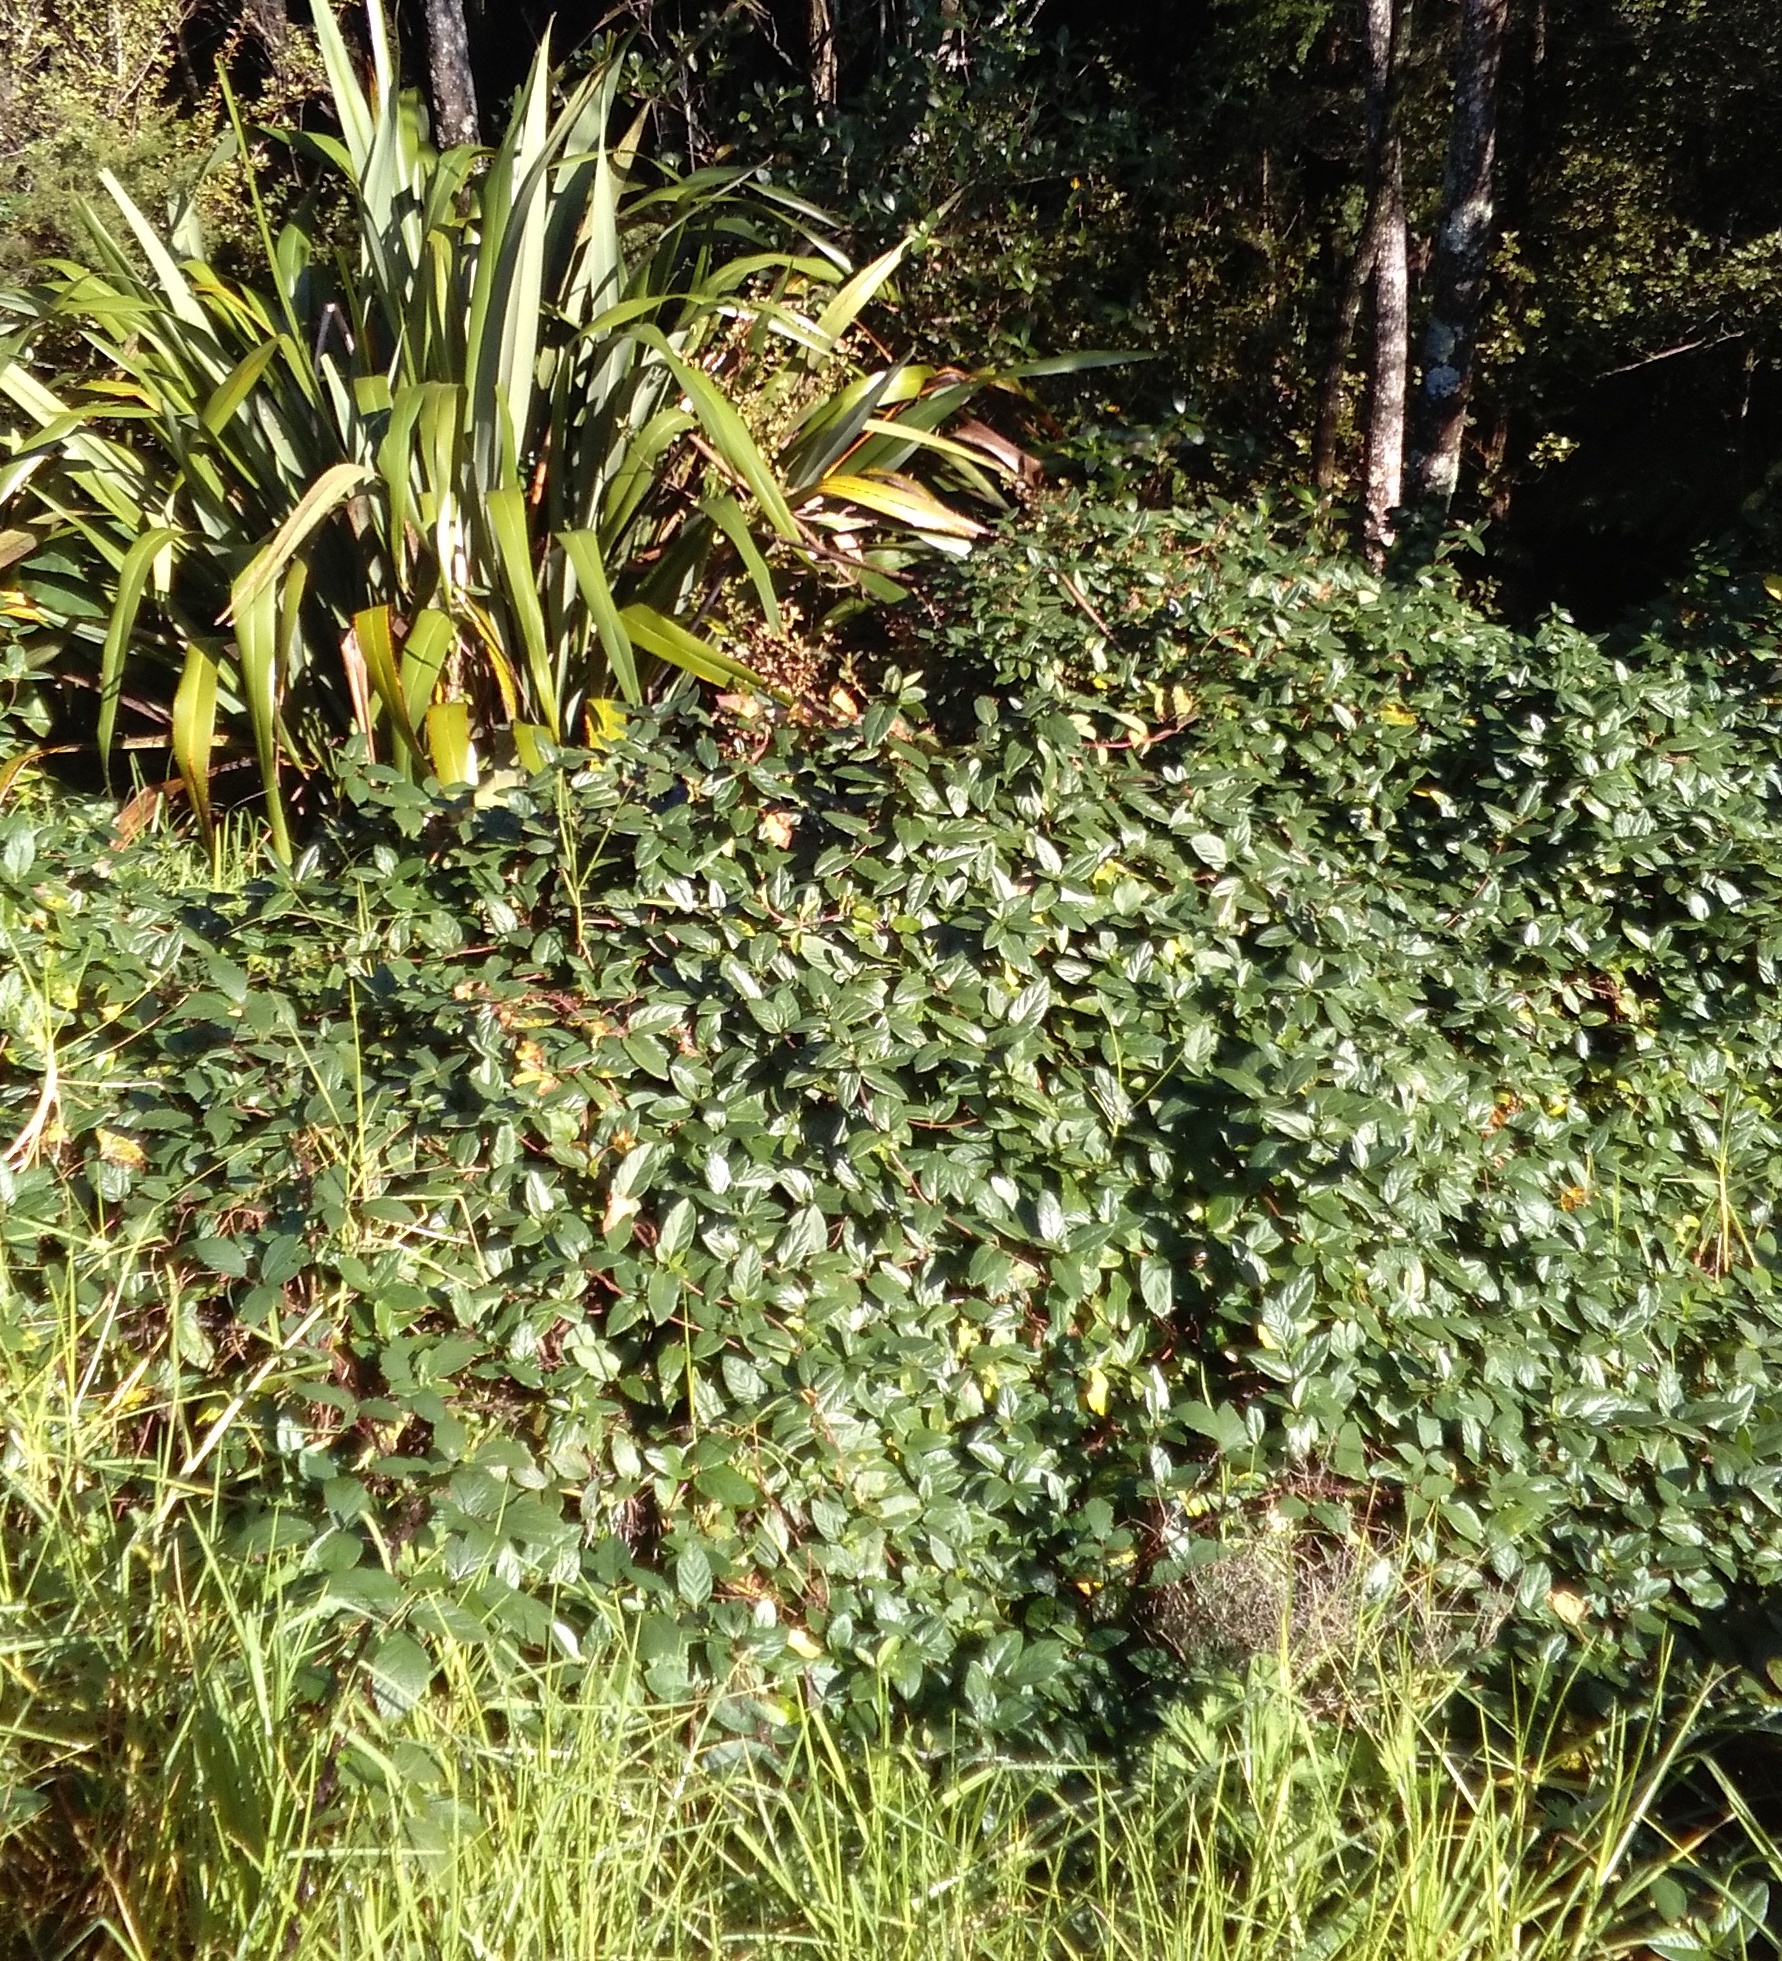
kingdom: Plantae
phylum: Tracheophyta
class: Liliopsida
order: Poales
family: Poaceae
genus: Cenchrus
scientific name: Cenchrus clandestinus
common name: Kikuyugrass
